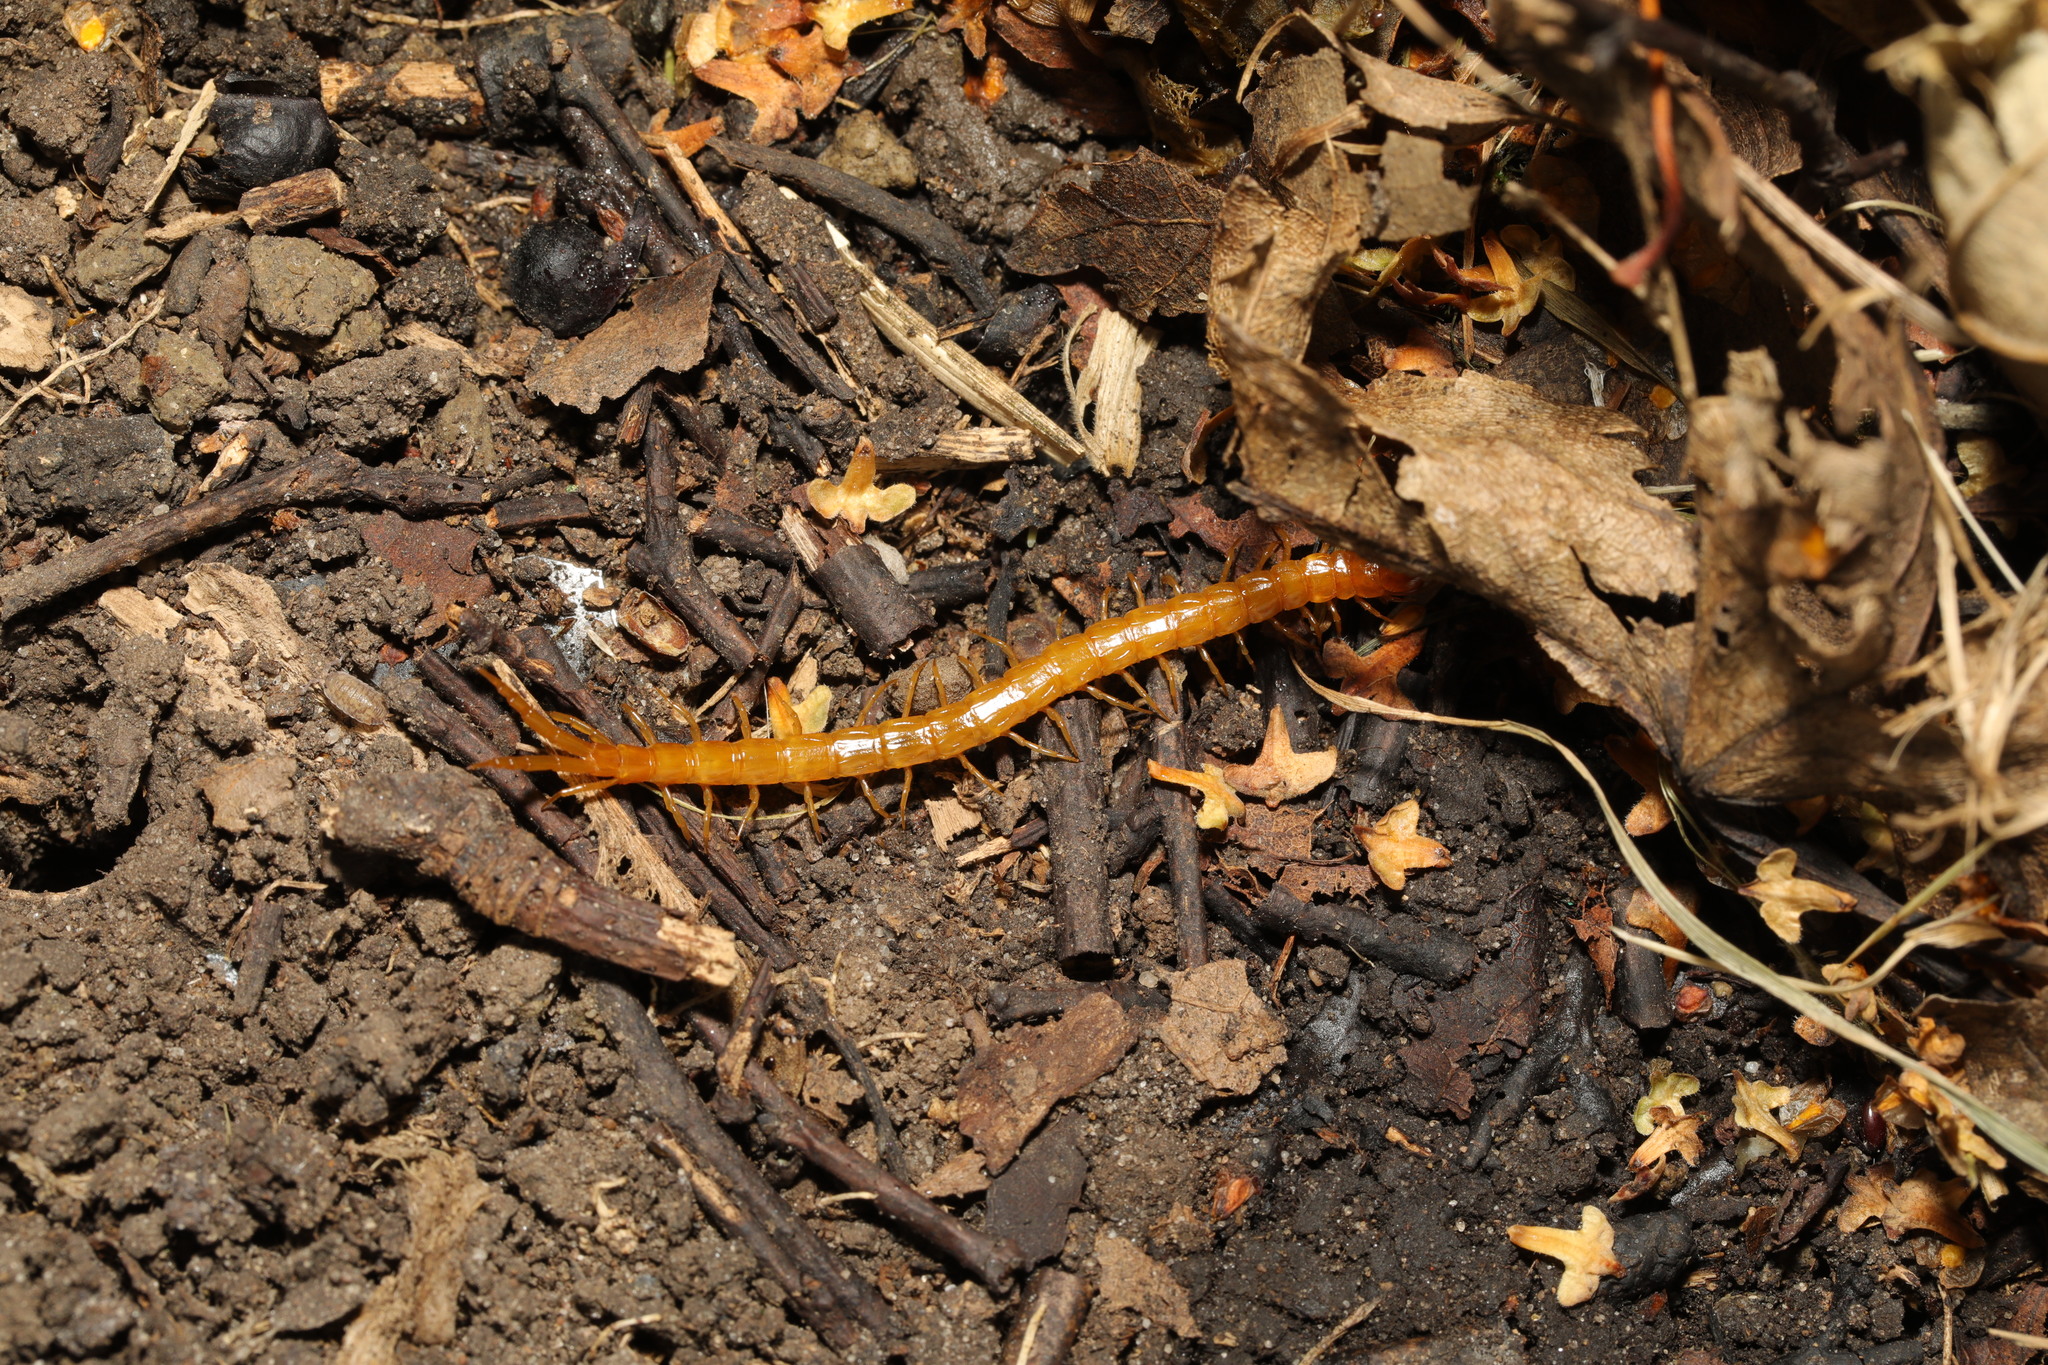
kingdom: Animalia
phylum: Arthropoda
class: Chilopoda
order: Scolopendromorpha
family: Cryptopidae
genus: Cryptops
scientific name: Cryptops anomalans
